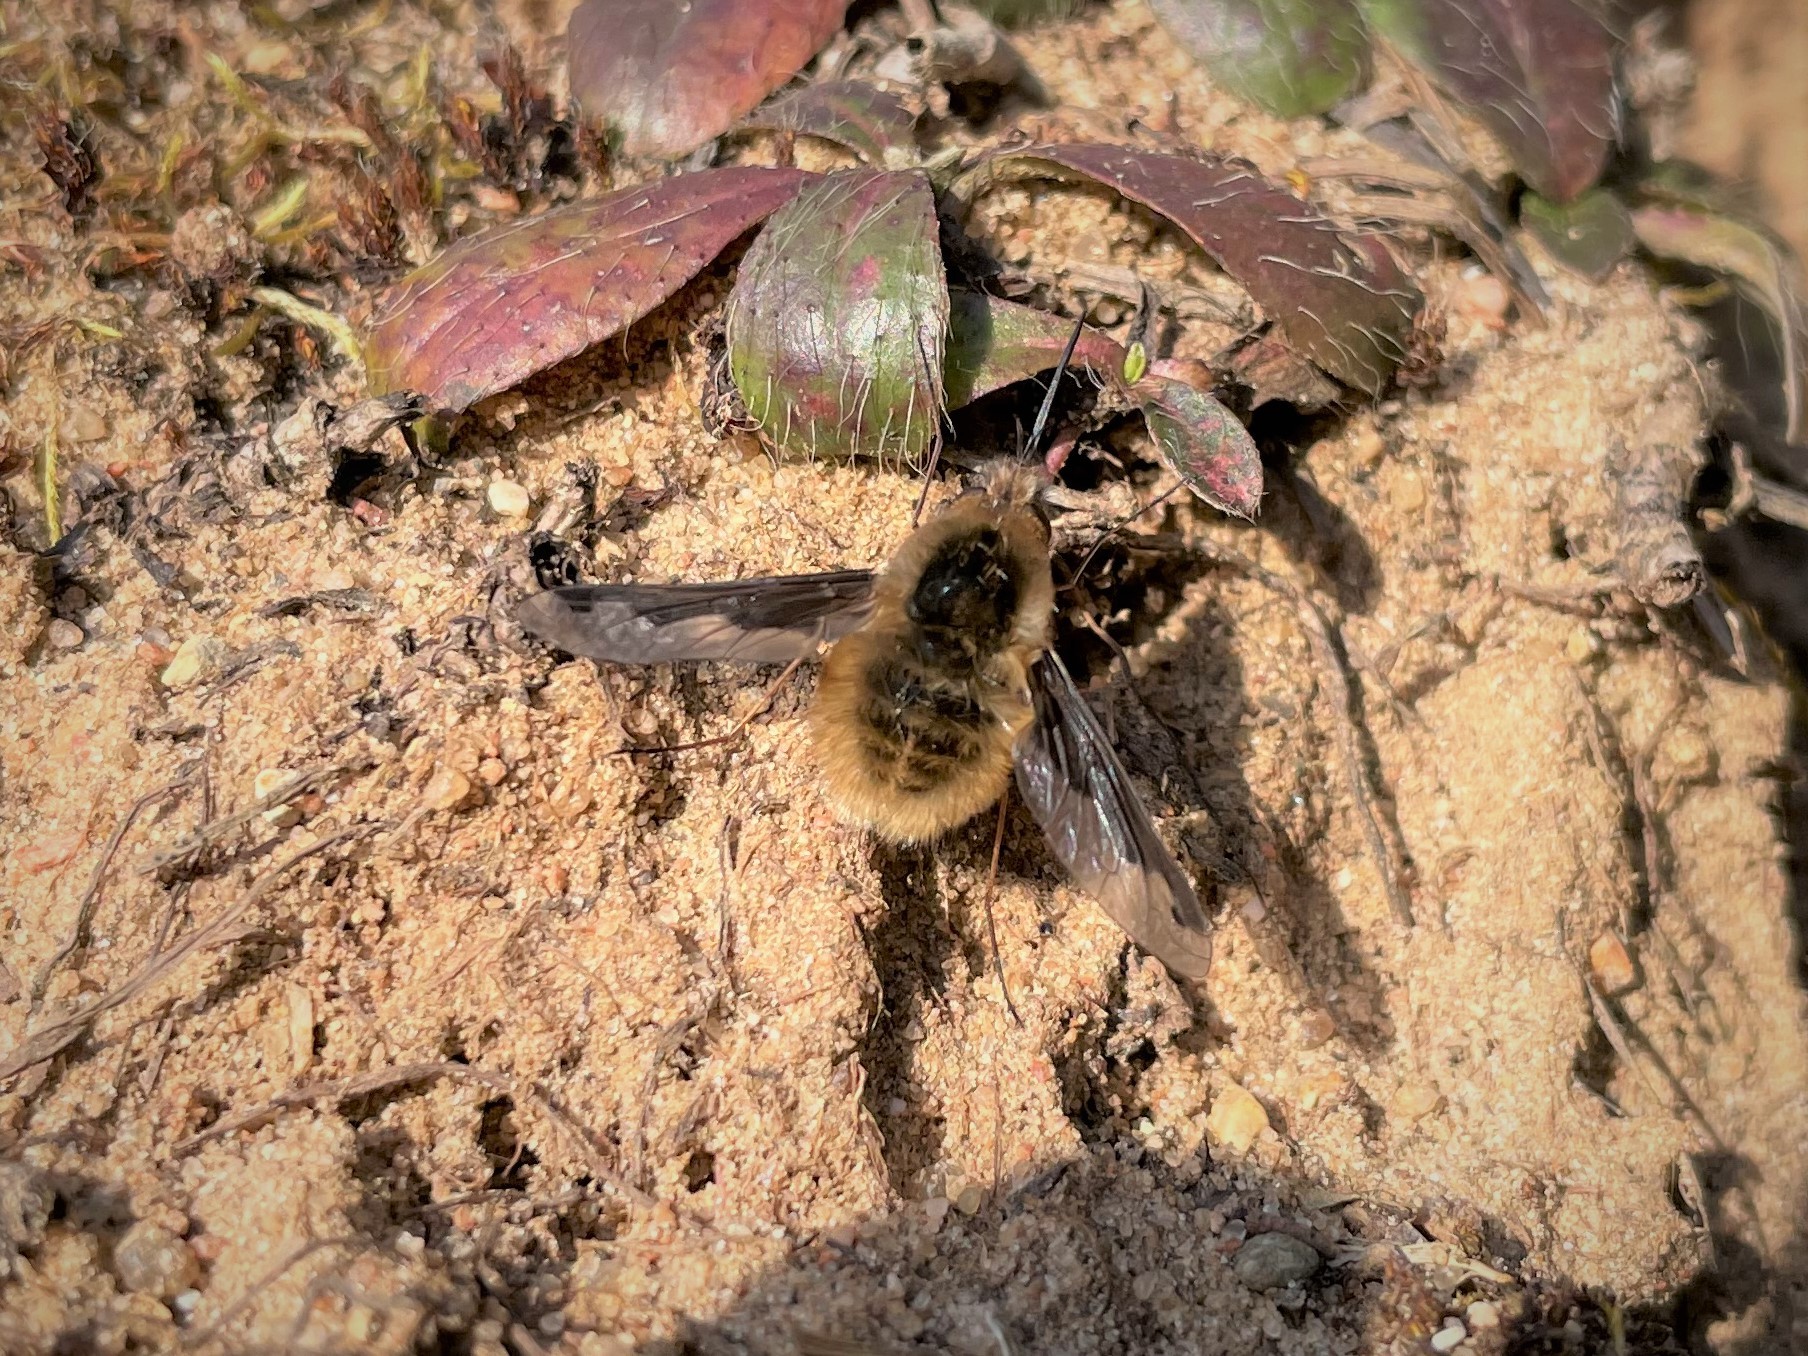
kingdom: Animalia
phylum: Arthropoda
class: Insecta
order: Diptera
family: Bombyliidae
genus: Bombylius
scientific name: Bombylius major
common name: Bee fly
